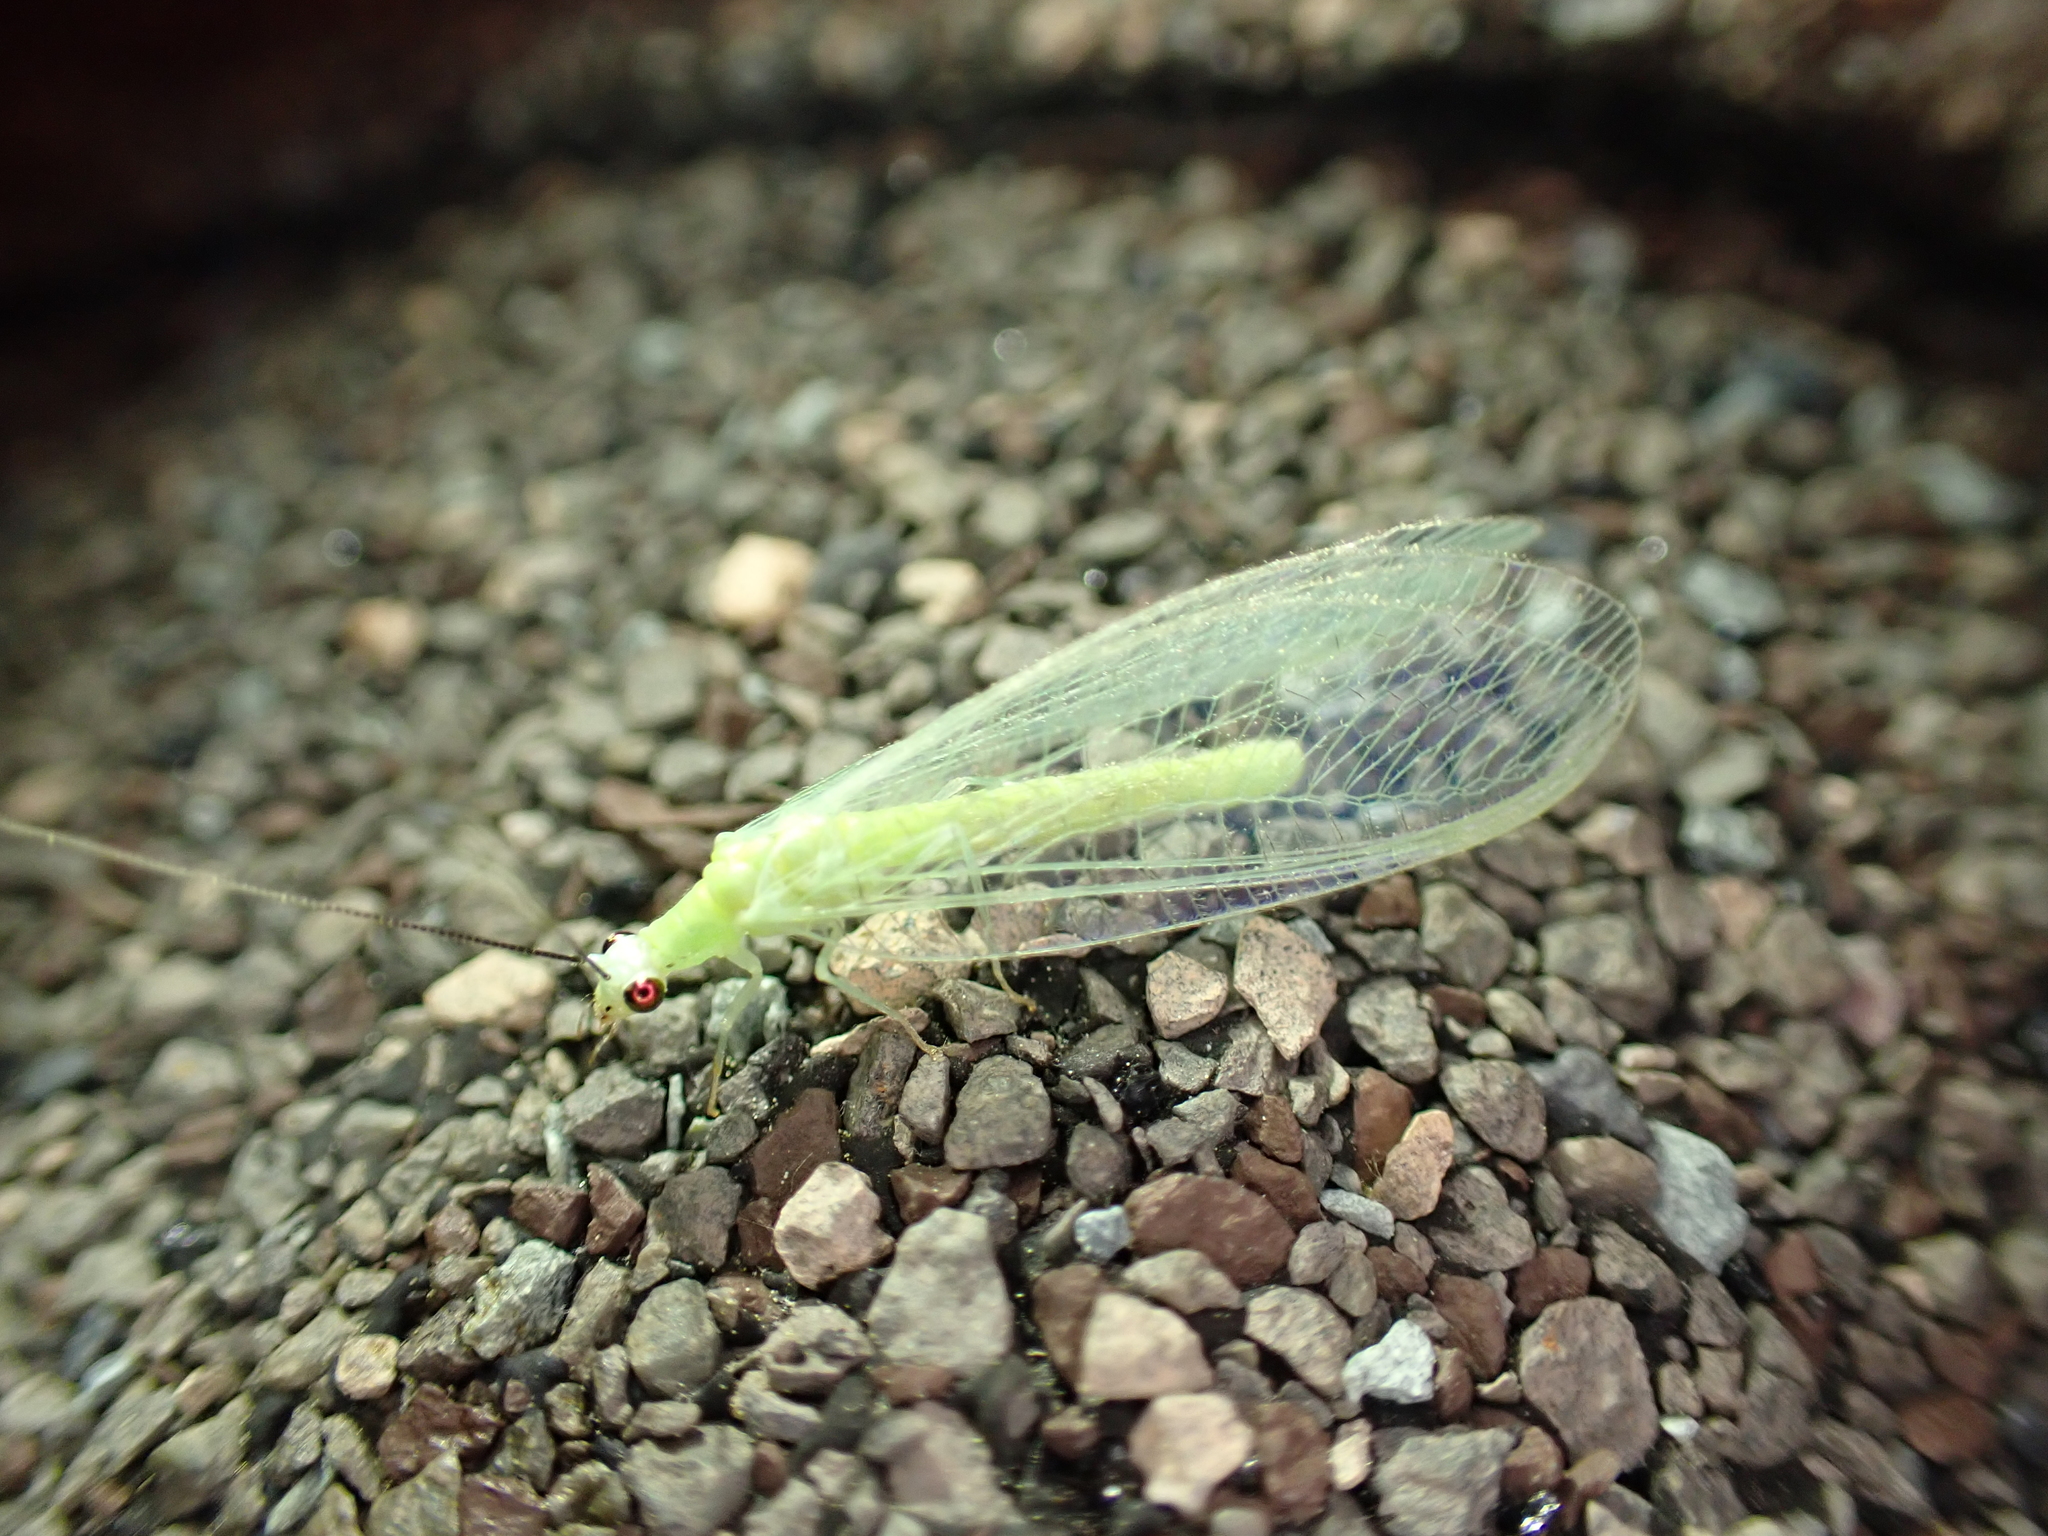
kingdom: Animalia
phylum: Arthropoda
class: Insecta
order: Neuroptera
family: Chrysopidae
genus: Chrysopa
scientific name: Chrysopa nigricornis
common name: Black-horned green lacewing
